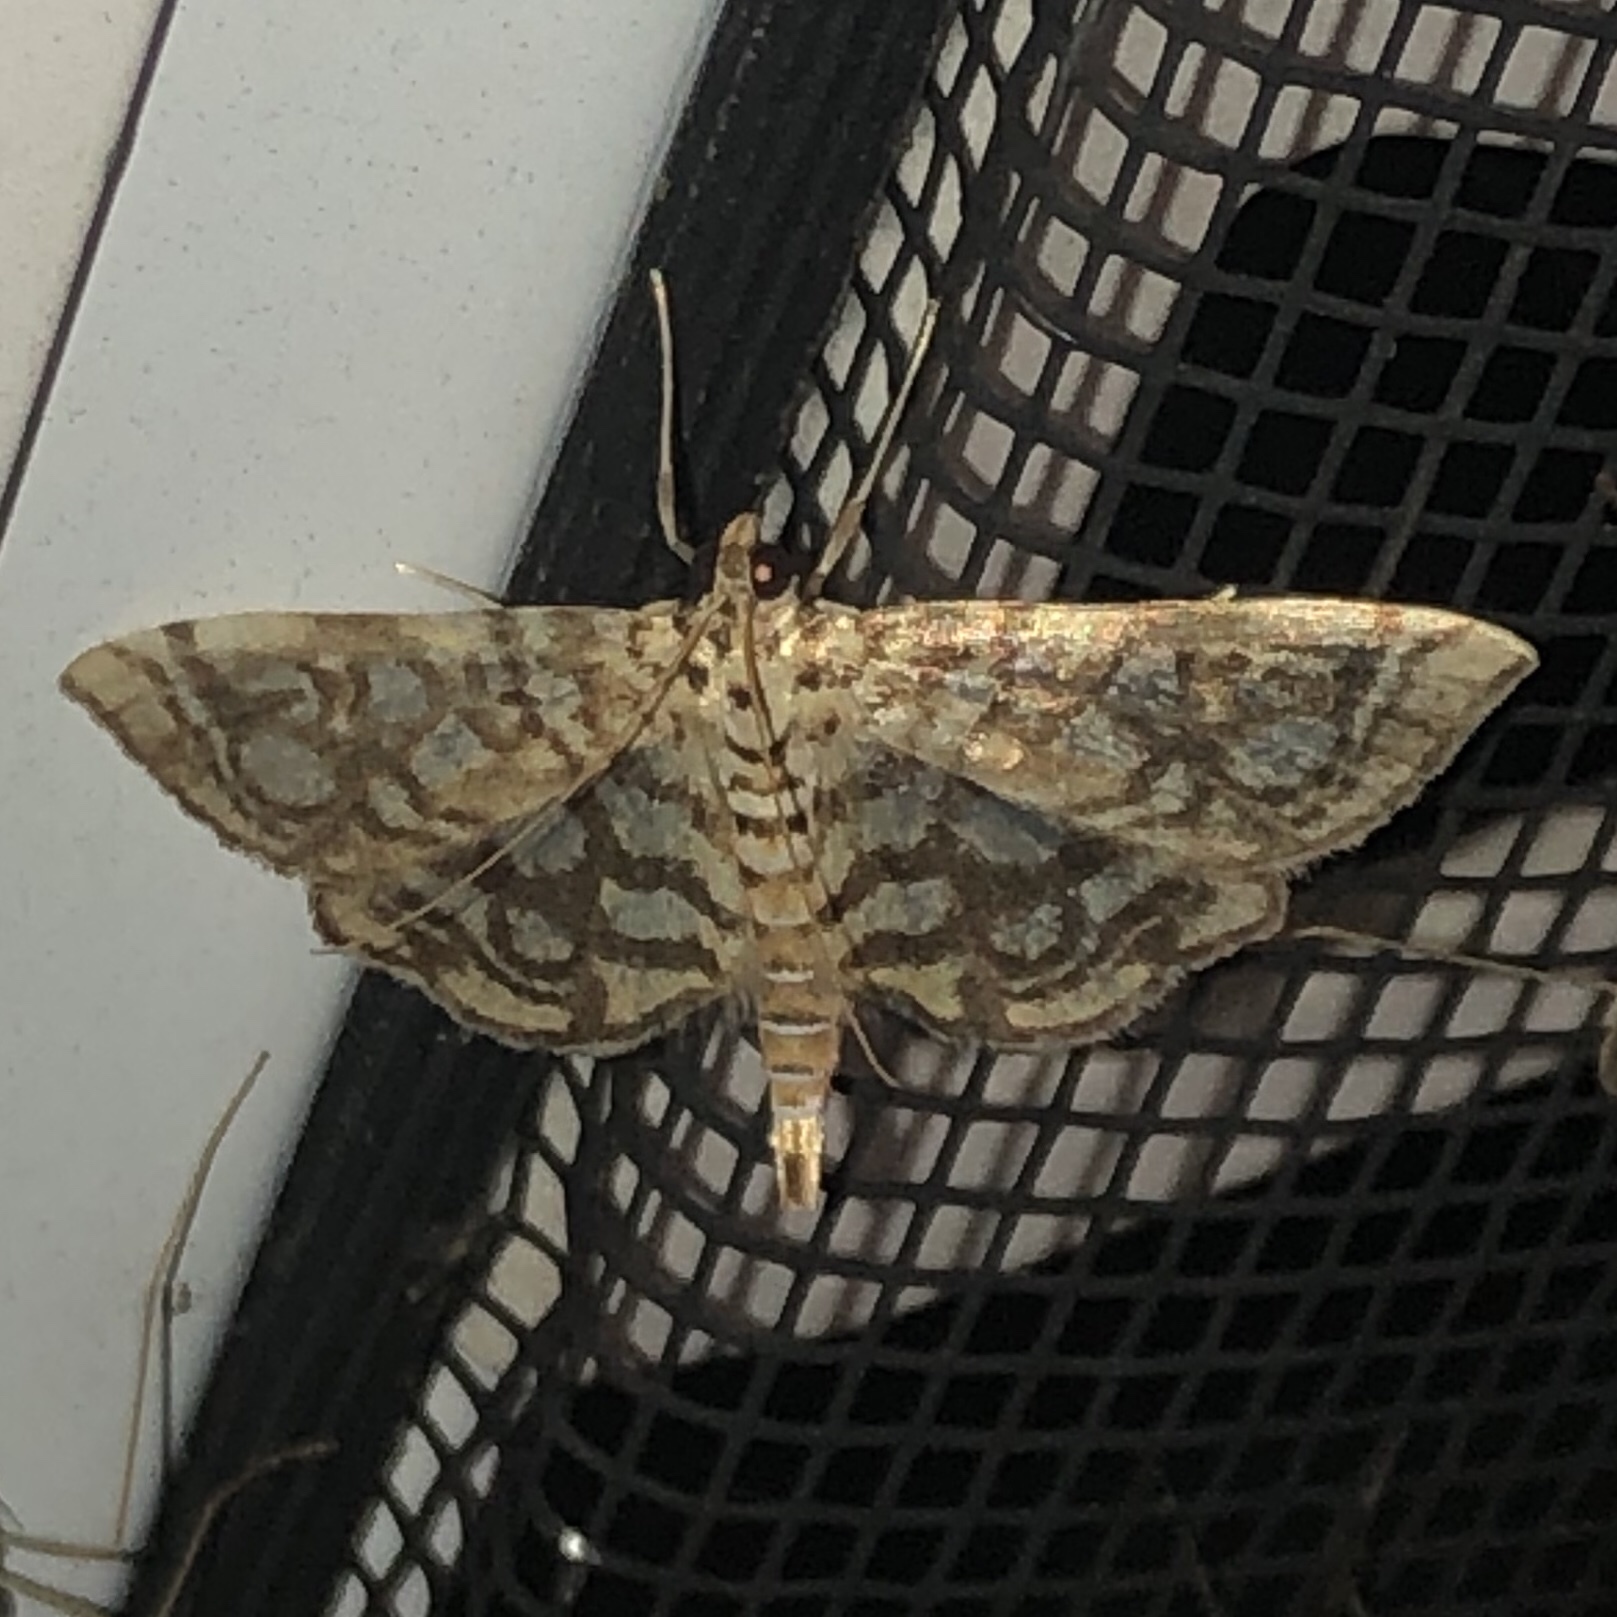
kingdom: Animalia
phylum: Arthropoda
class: Insecta
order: Lepidoptera
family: Crambidae
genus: Lygropia
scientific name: Lygropia rivulalis
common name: Bog lygropia moth
